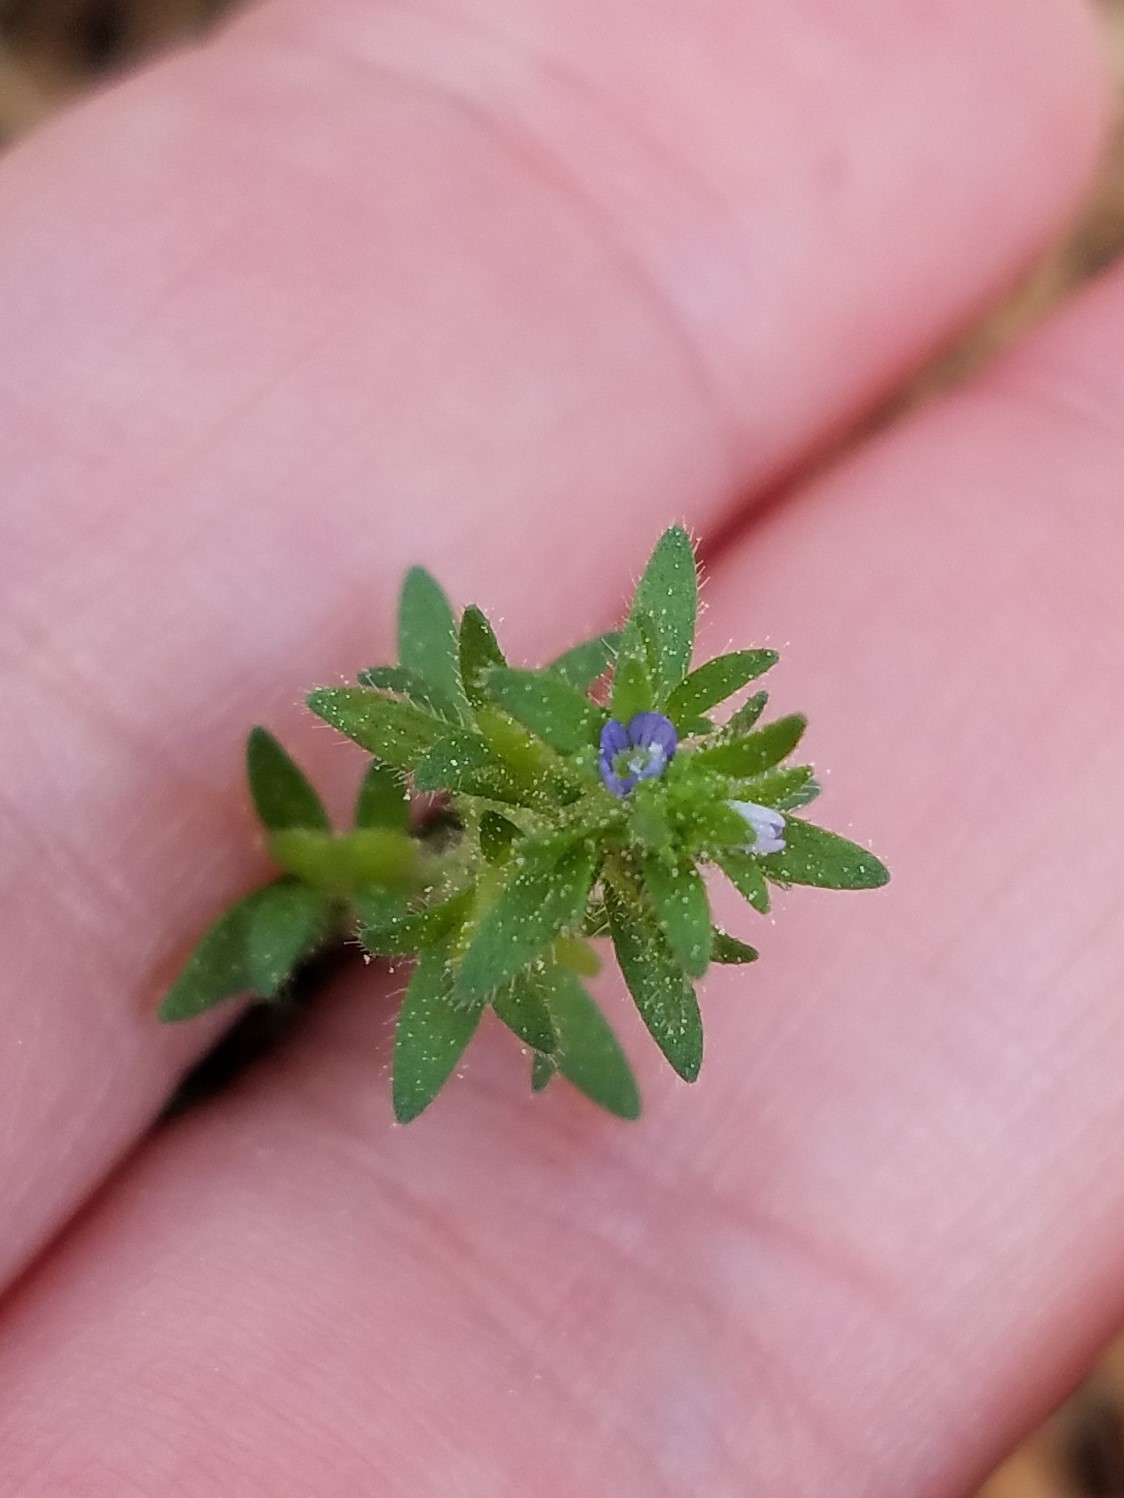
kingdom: Plantae
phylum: Tracheophyta
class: Magnoliopsida
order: Lamiales
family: Plantaginaceae
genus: Veronica
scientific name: Veronica arvensis
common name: Corn speedwell
